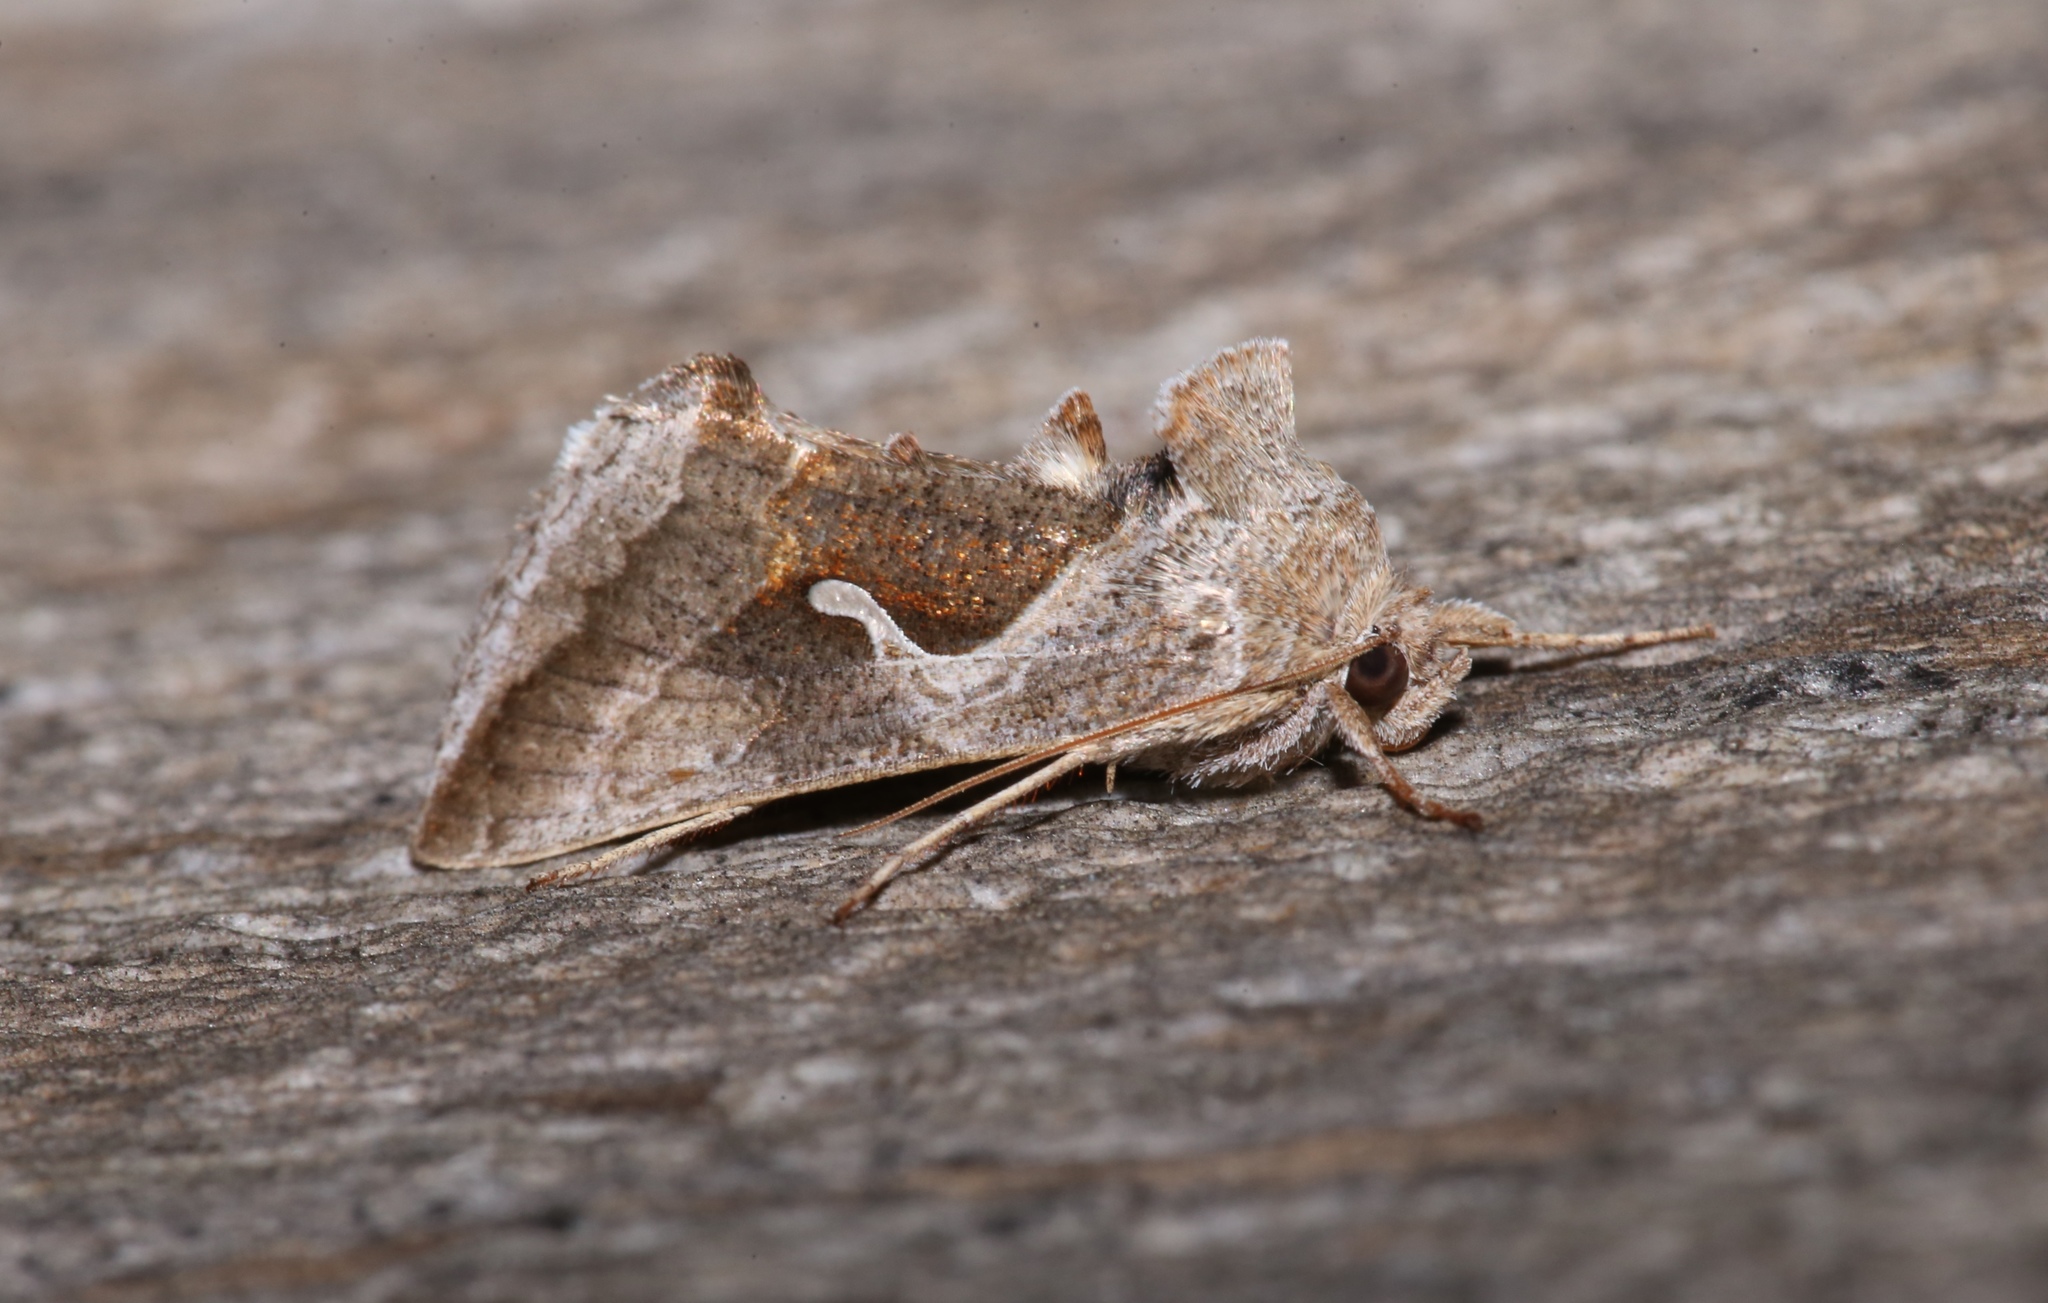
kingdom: Animalia
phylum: Arthropoda
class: Insecta
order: Lepidoptera
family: Noctuidae
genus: Anagrapha
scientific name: Anagrapha falcifera
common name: Celery looper
